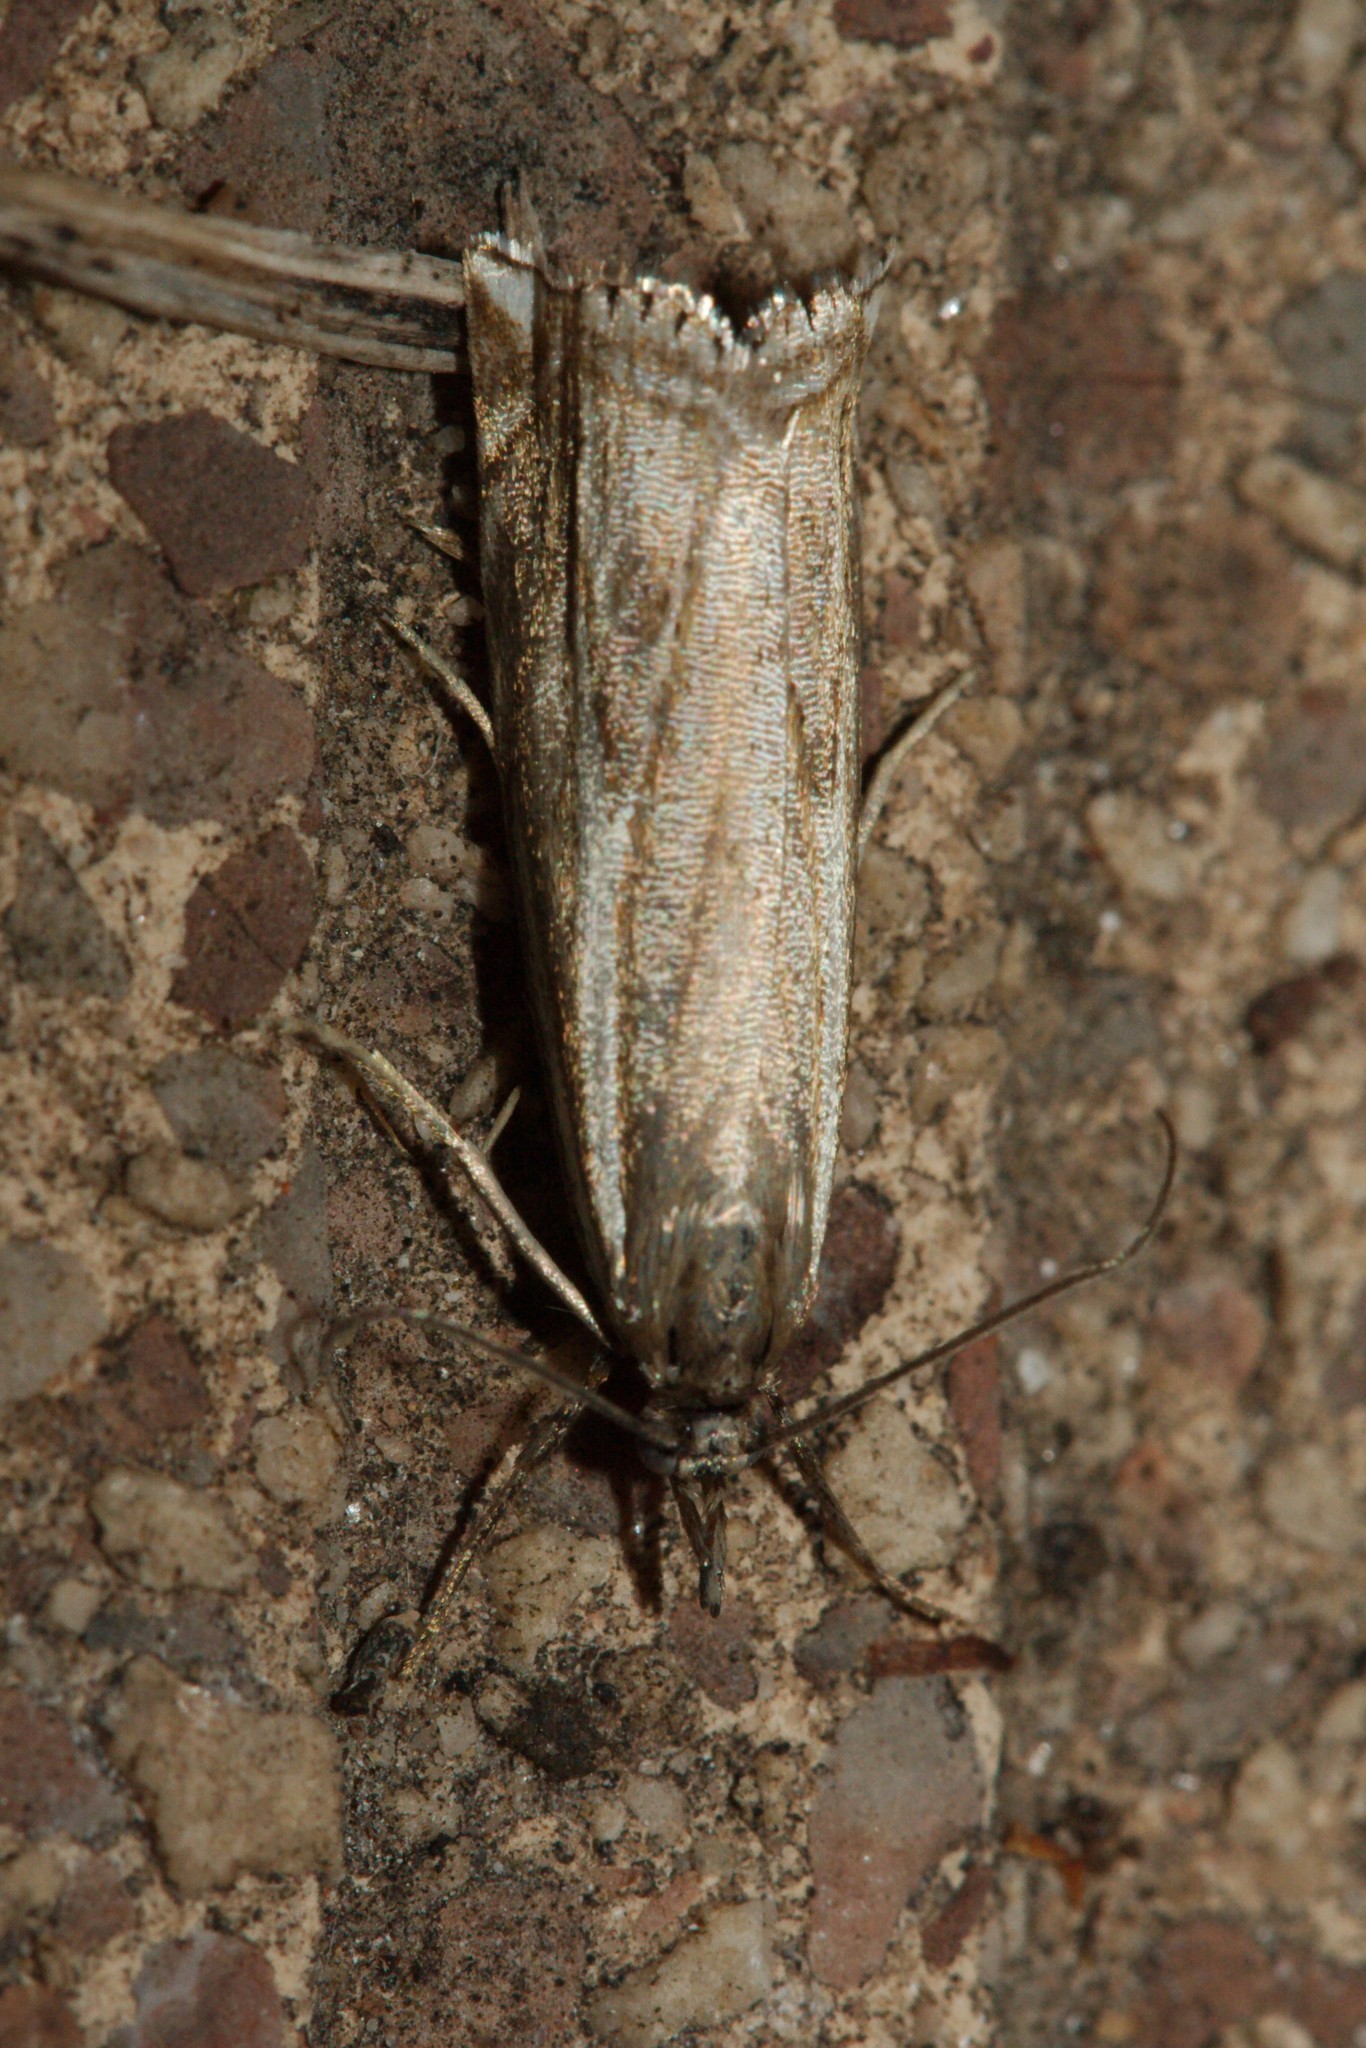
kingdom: Animalia
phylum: Arthropoda
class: Insecta
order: Lepidoptera
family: Crambidae
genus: Crambus
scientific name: Crambus nemorella
